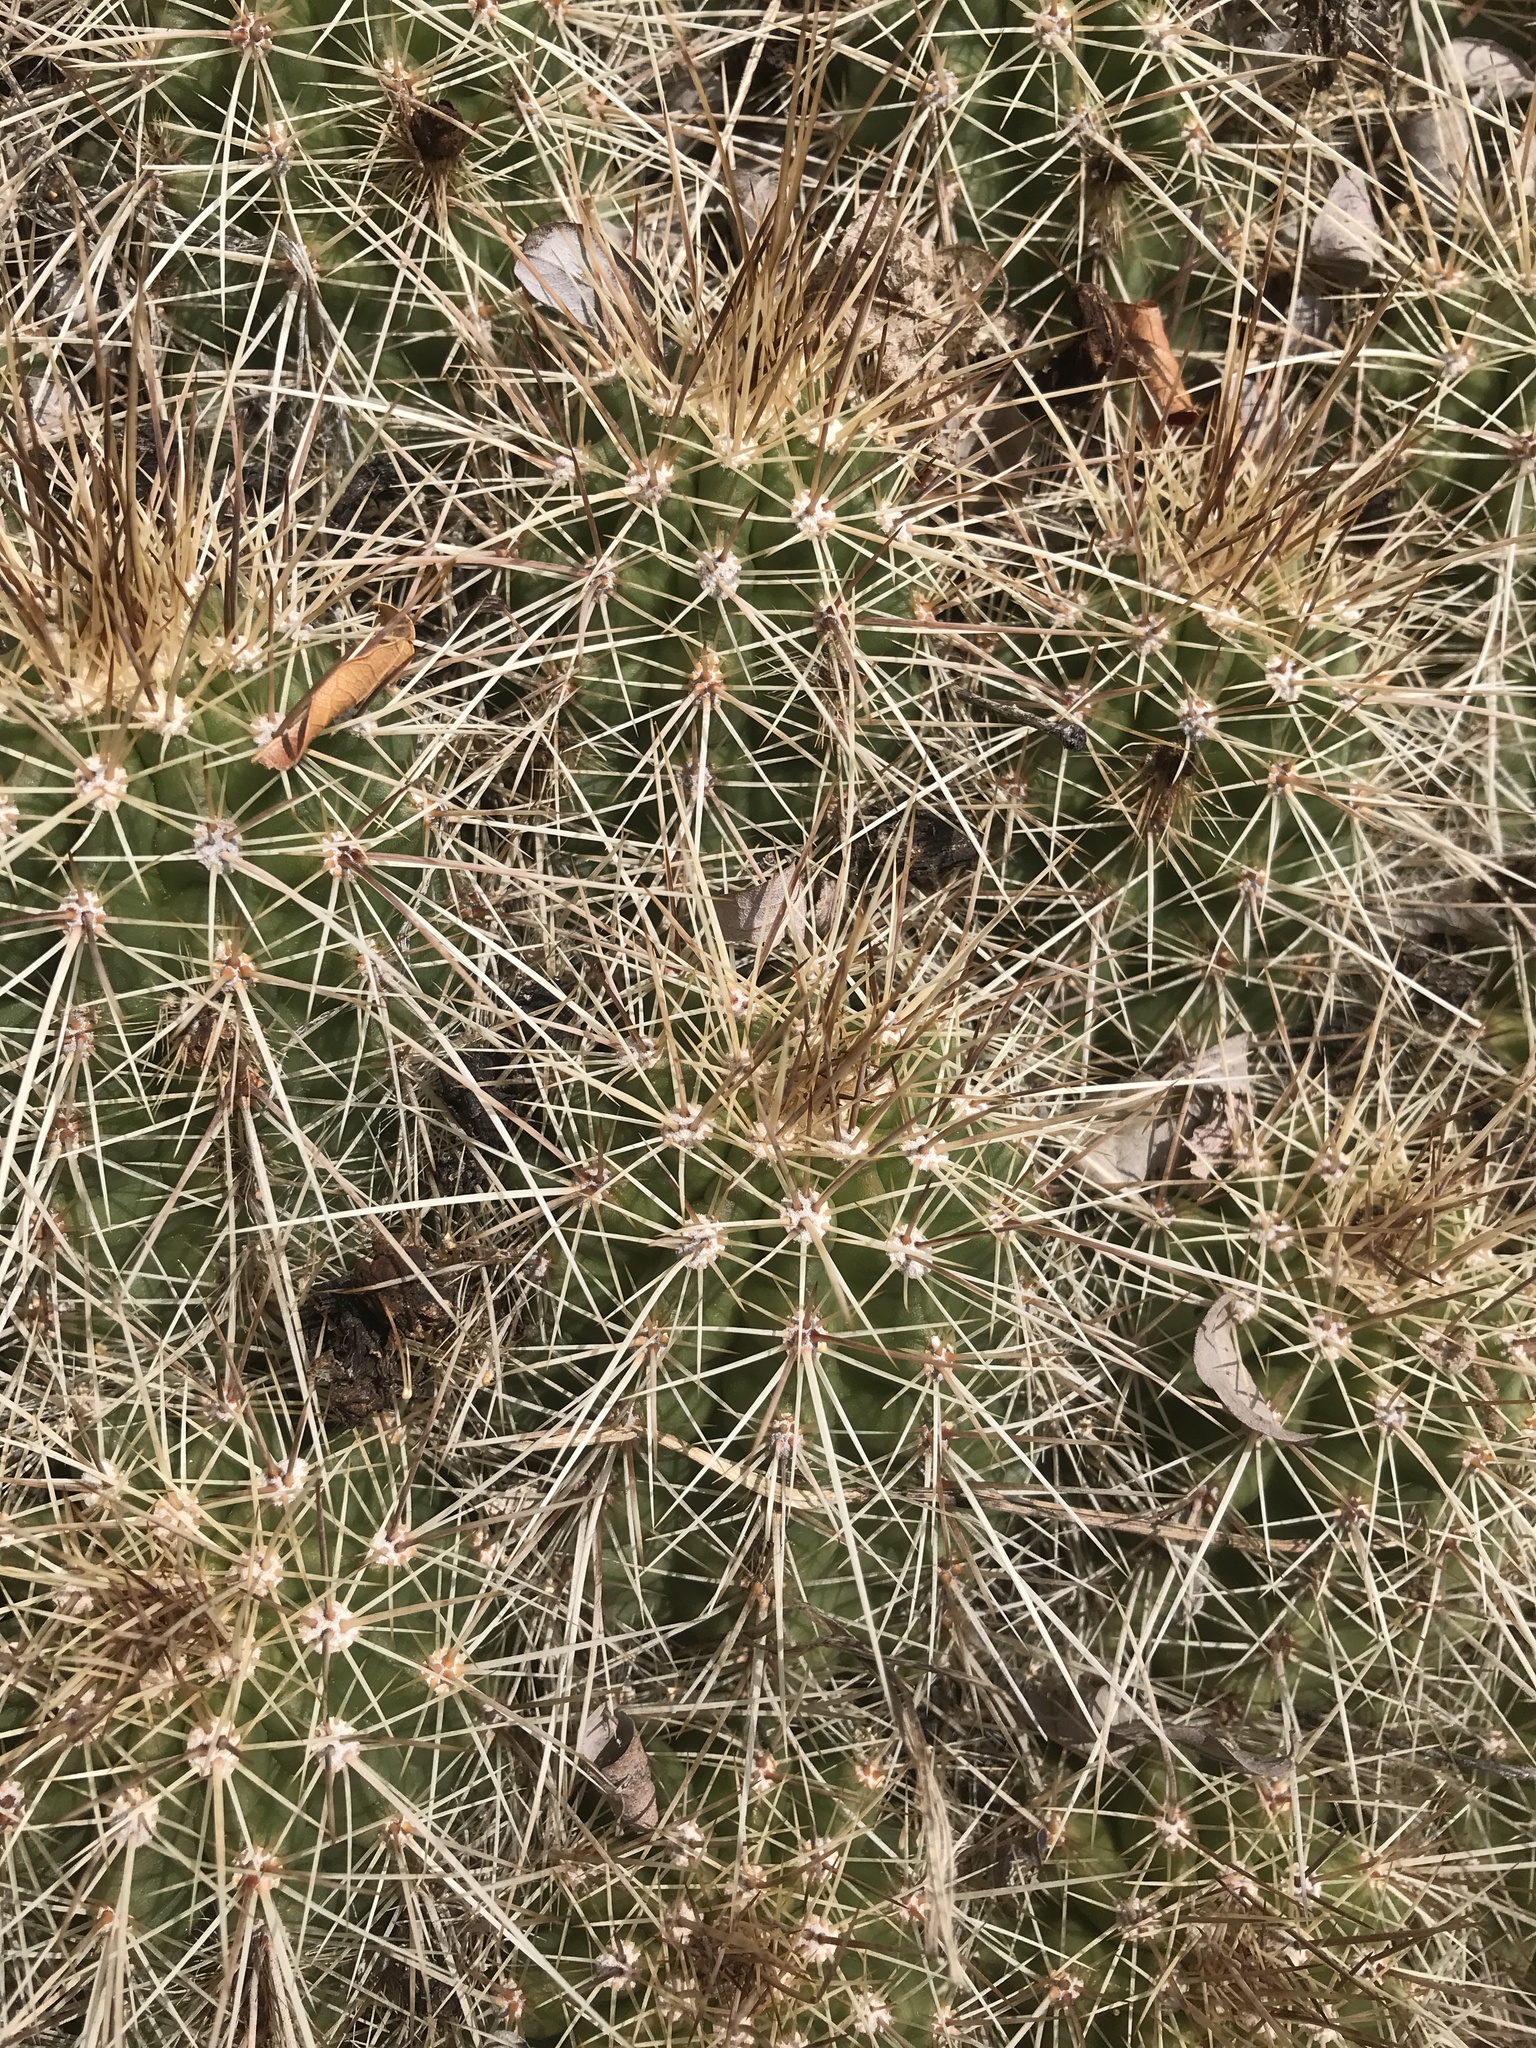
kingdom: Plantae
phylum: Tracheophyta
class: Magnoliopsida
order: Caryophyllales
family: Cactaceae
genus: Echinocereus
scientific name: Echinocereus coccineus
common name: Scarlet hedgehog cactus
